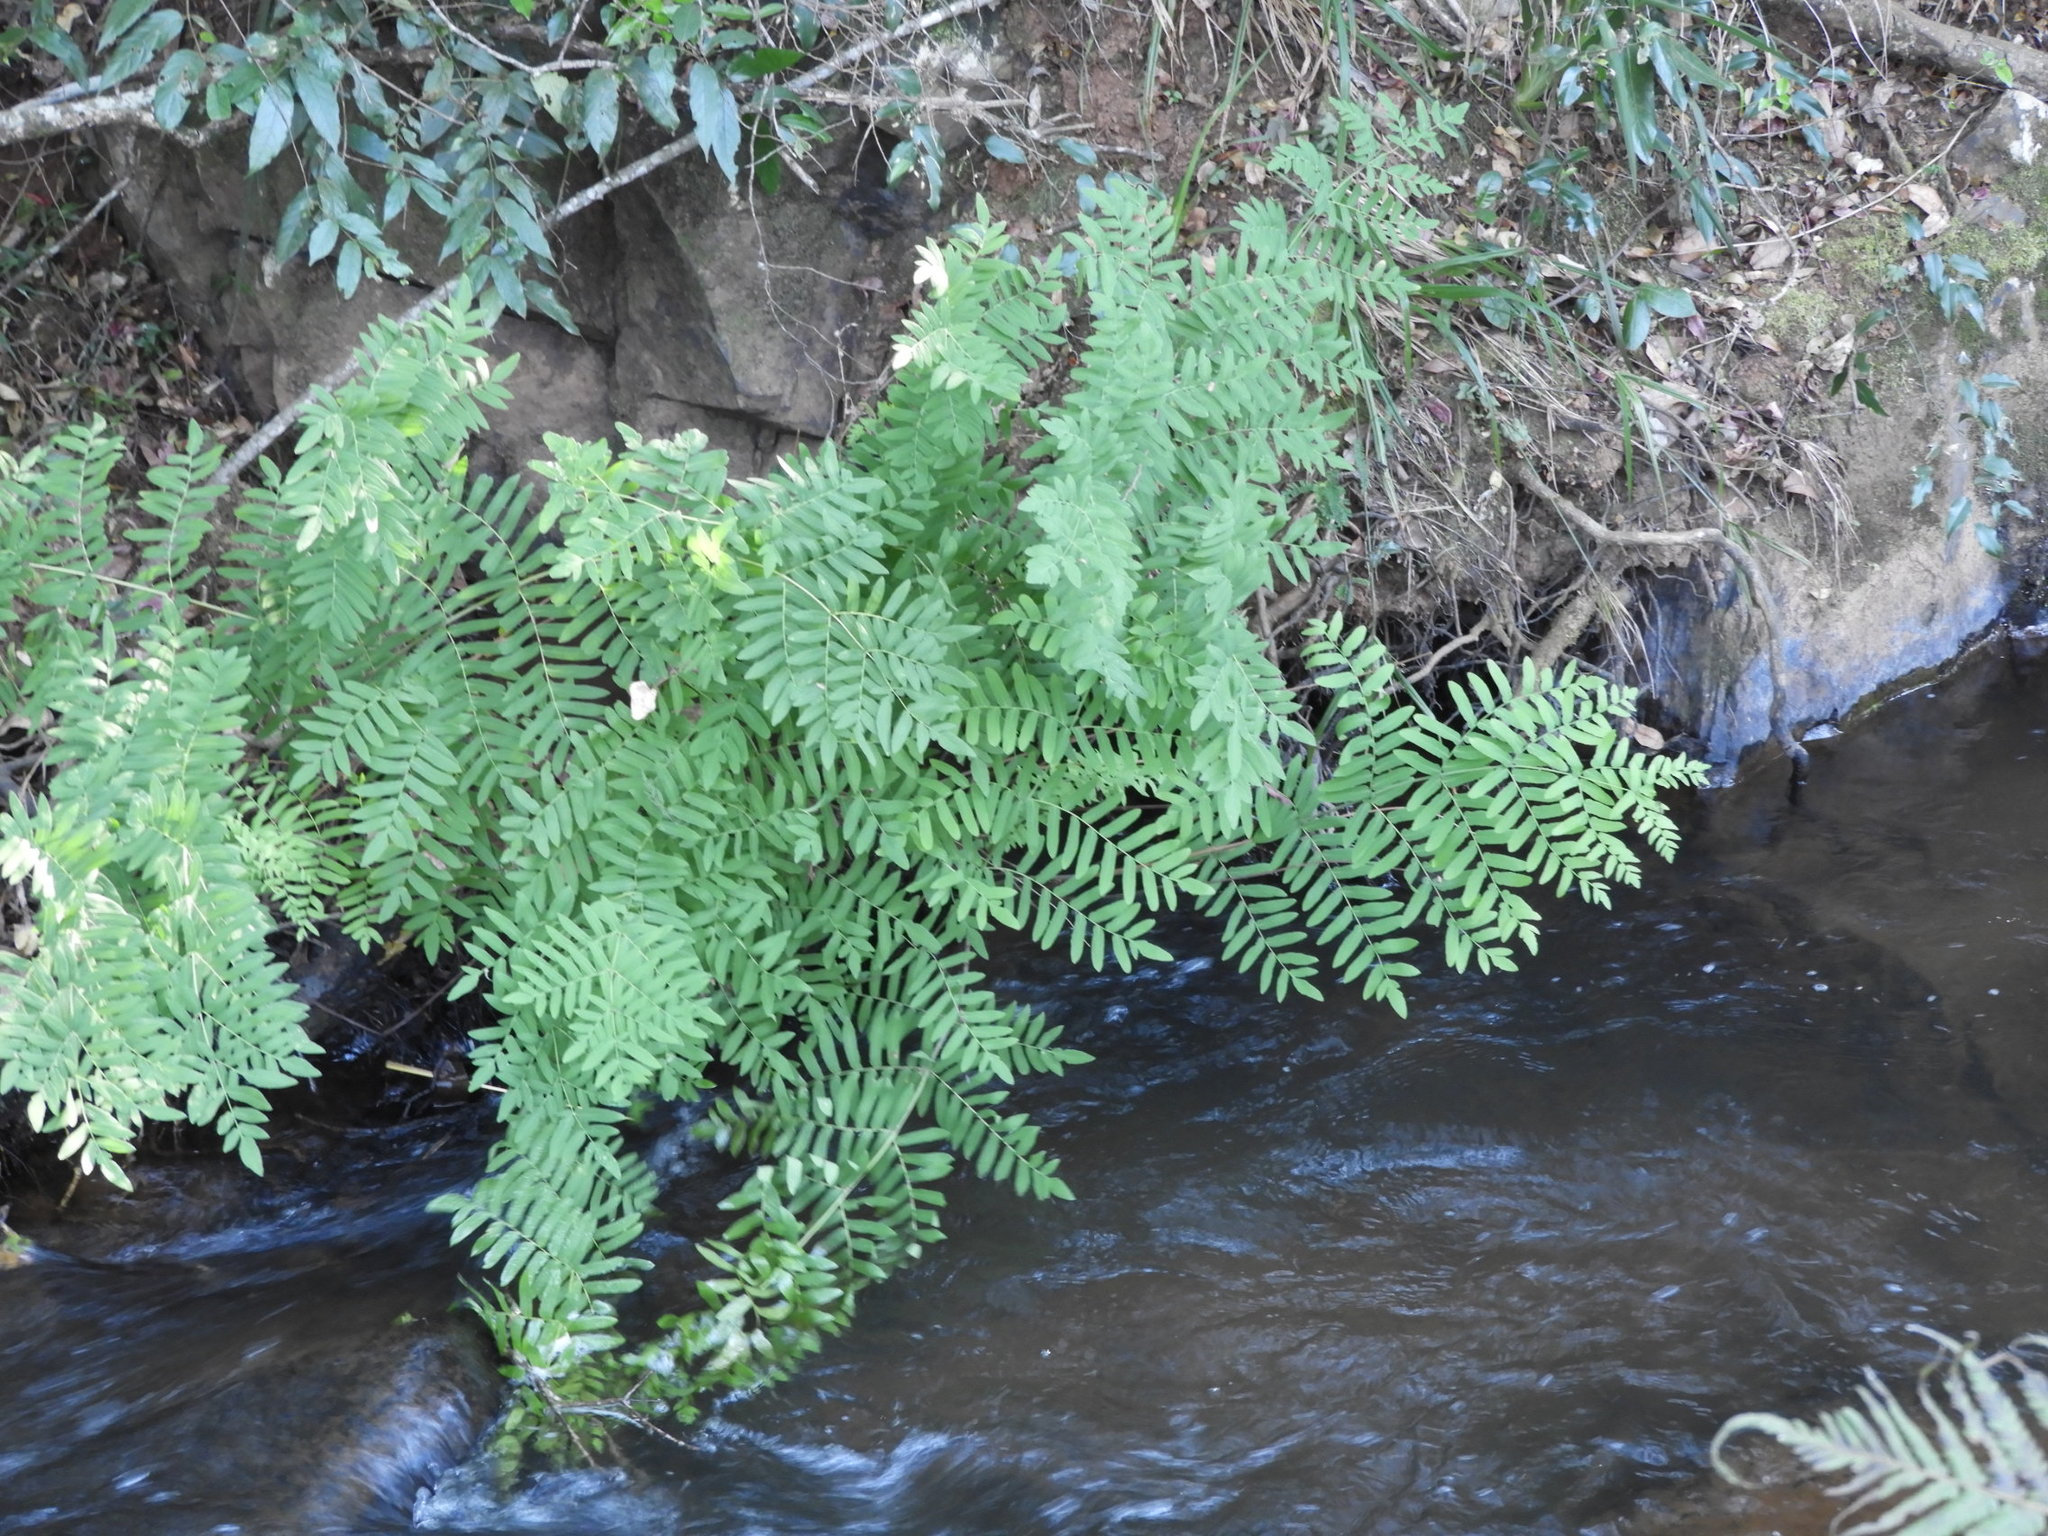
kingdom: Plantae
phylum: Tracheophyta
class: Polypodiopsida
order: Osmundales
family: Osmundaceae
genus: Osmunda
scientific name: Osmunda acuta
